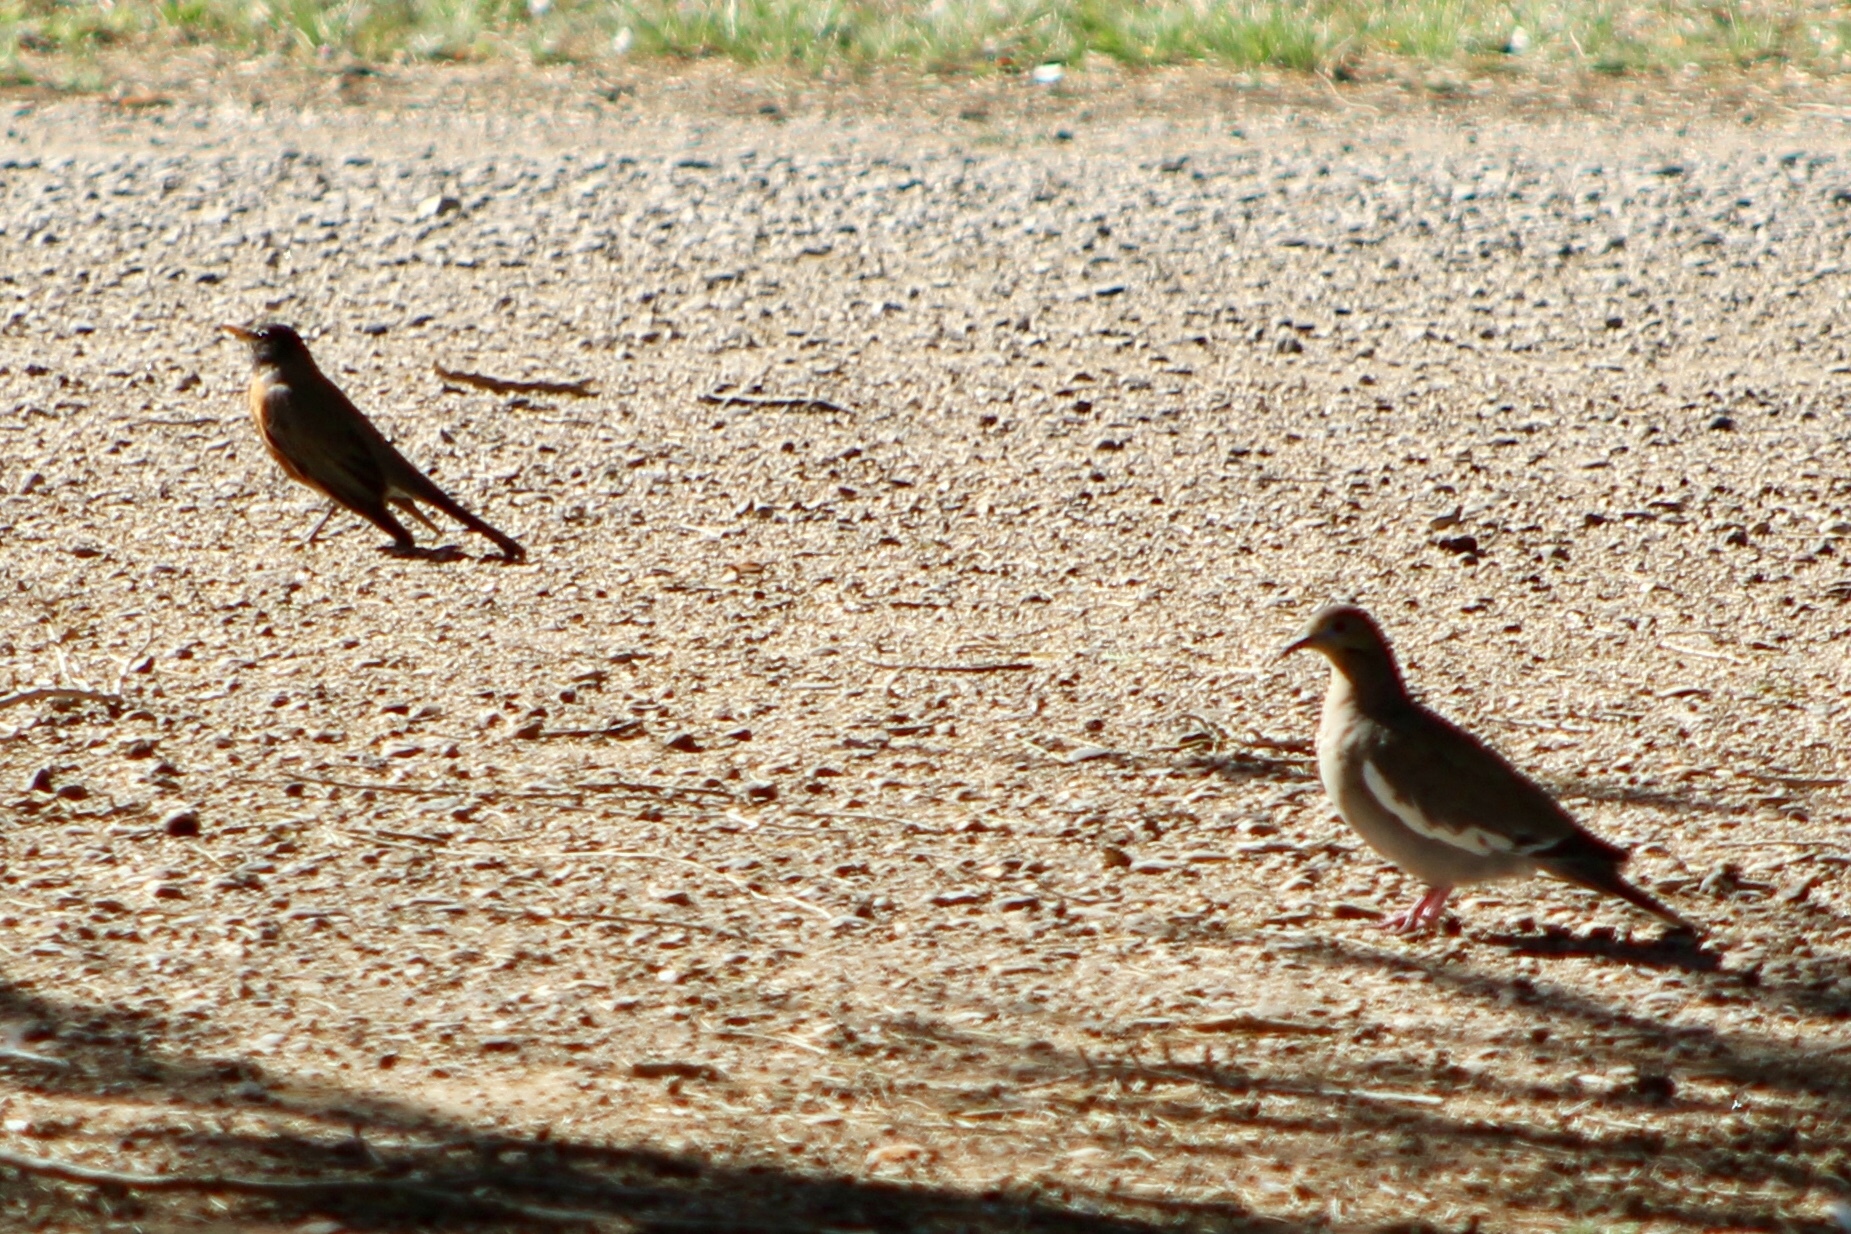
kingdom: Animalia
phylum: Chordata
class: Aves
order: Columbiformes
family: Columbidae
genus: Zenaida
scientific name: Zenaida asiatica
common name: White-winged dove
